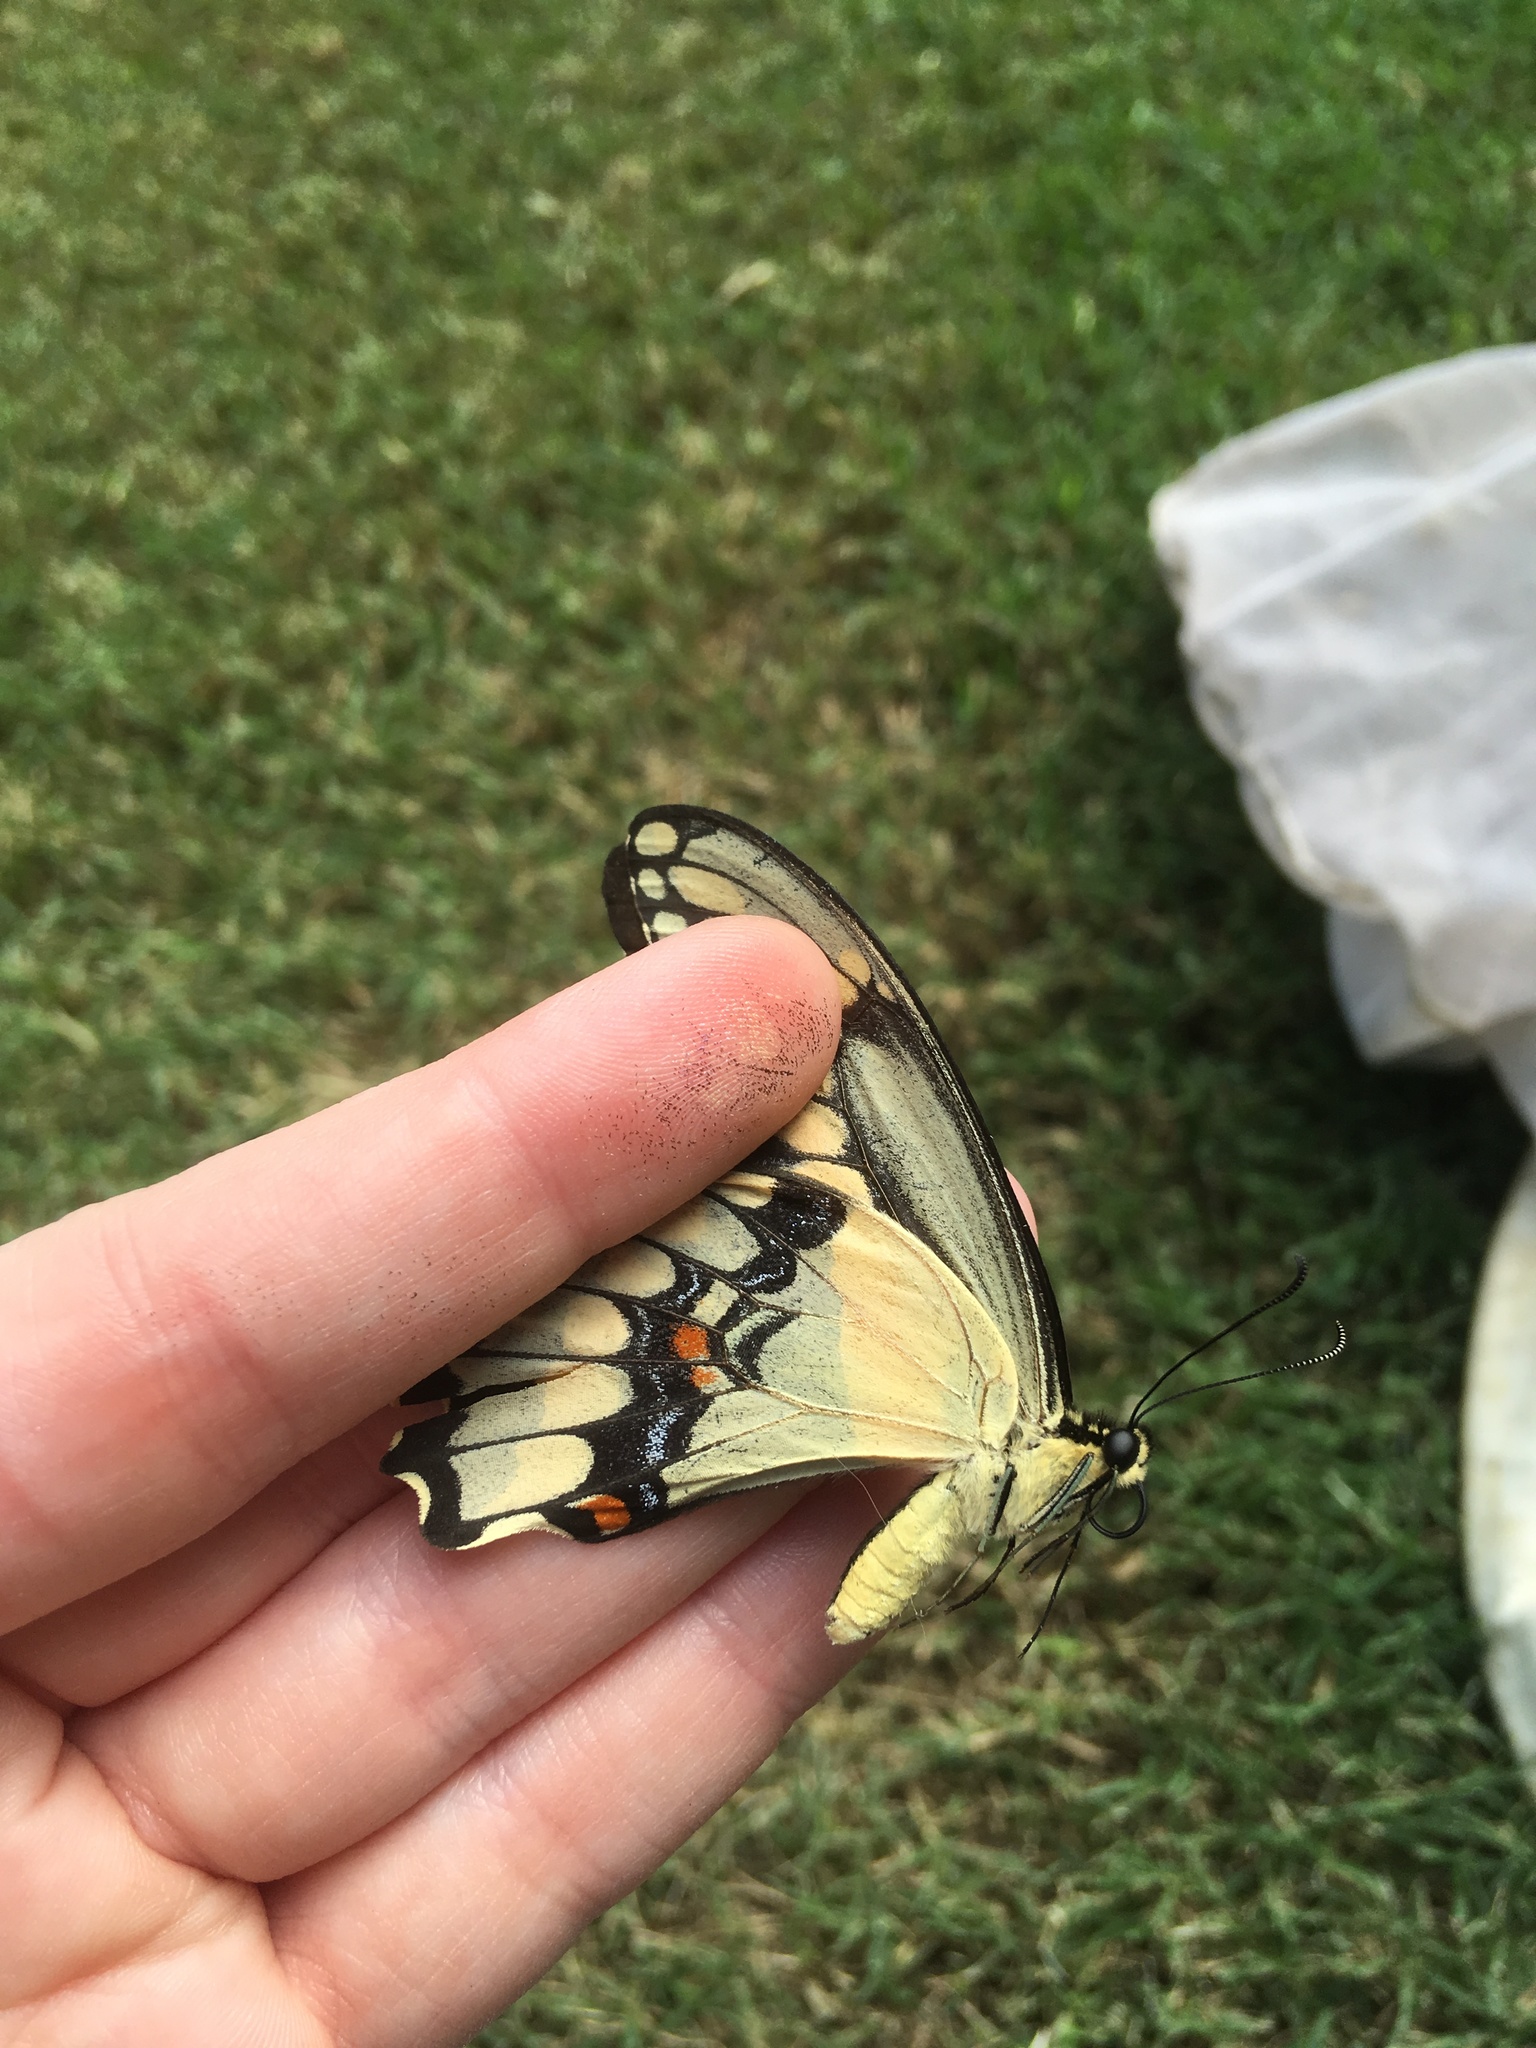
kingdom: Animalia
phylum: Arthropoda
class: Insecta
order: Lepidoptera
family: Papilionidae
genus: Papilio
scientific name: Papilio cresphontes
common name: Giant swallowtail
